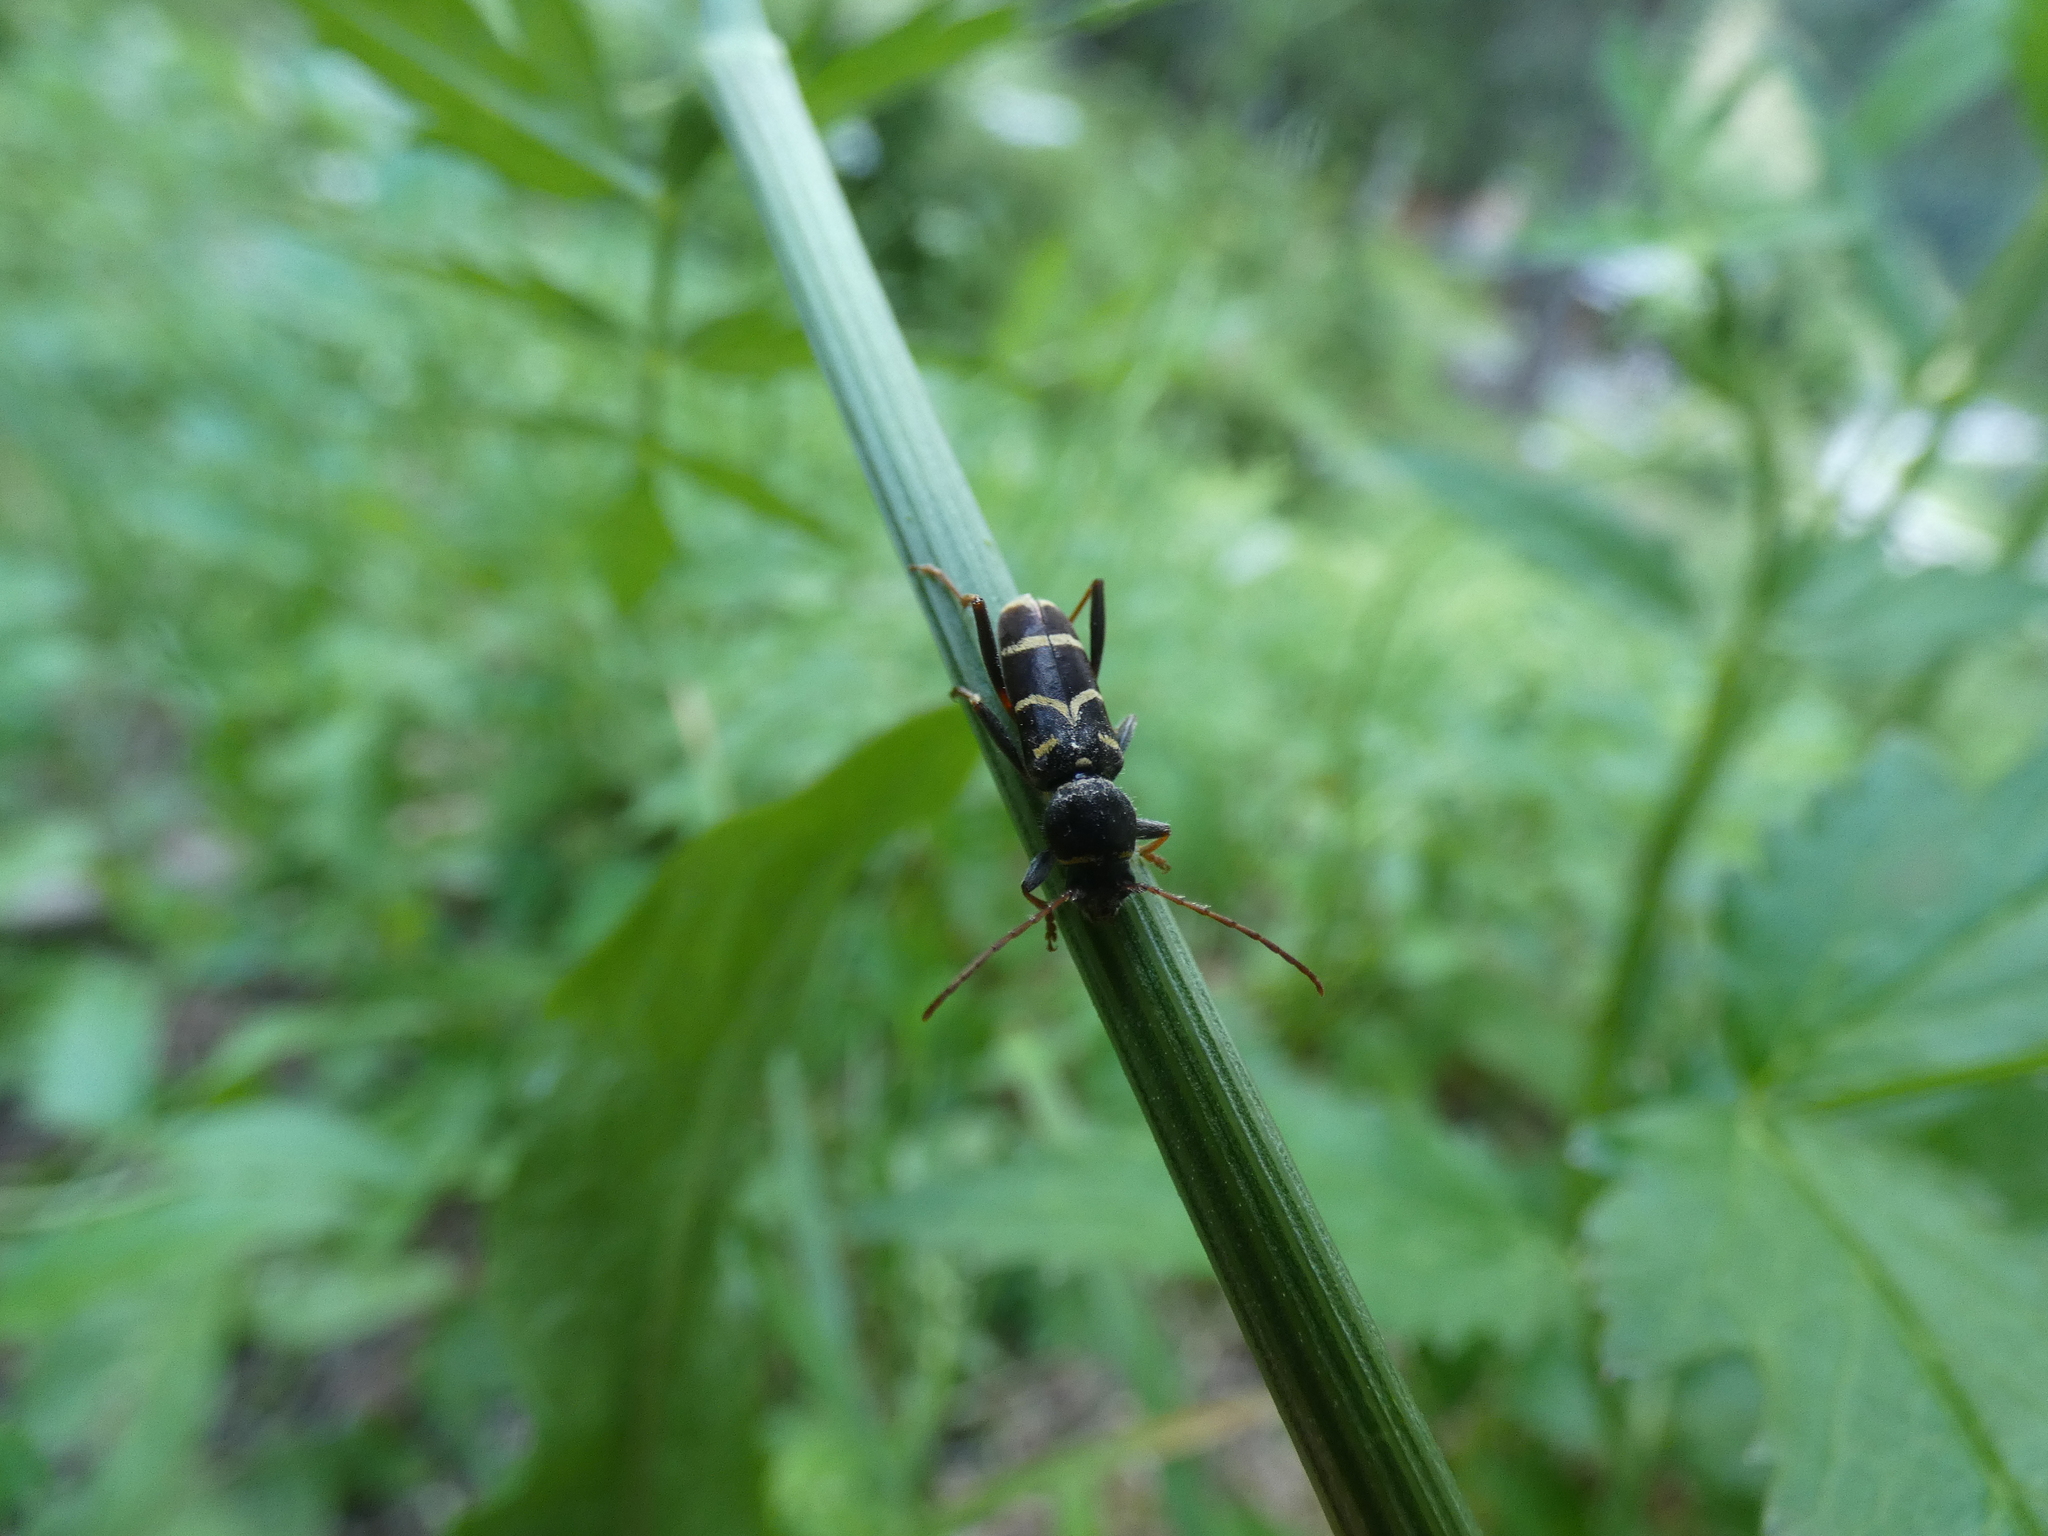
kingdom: Animalia
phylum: Arthropoda
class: Insecta
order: Coleoptera
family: Cerambycidae
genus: Clytus
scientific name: Clytus lama
